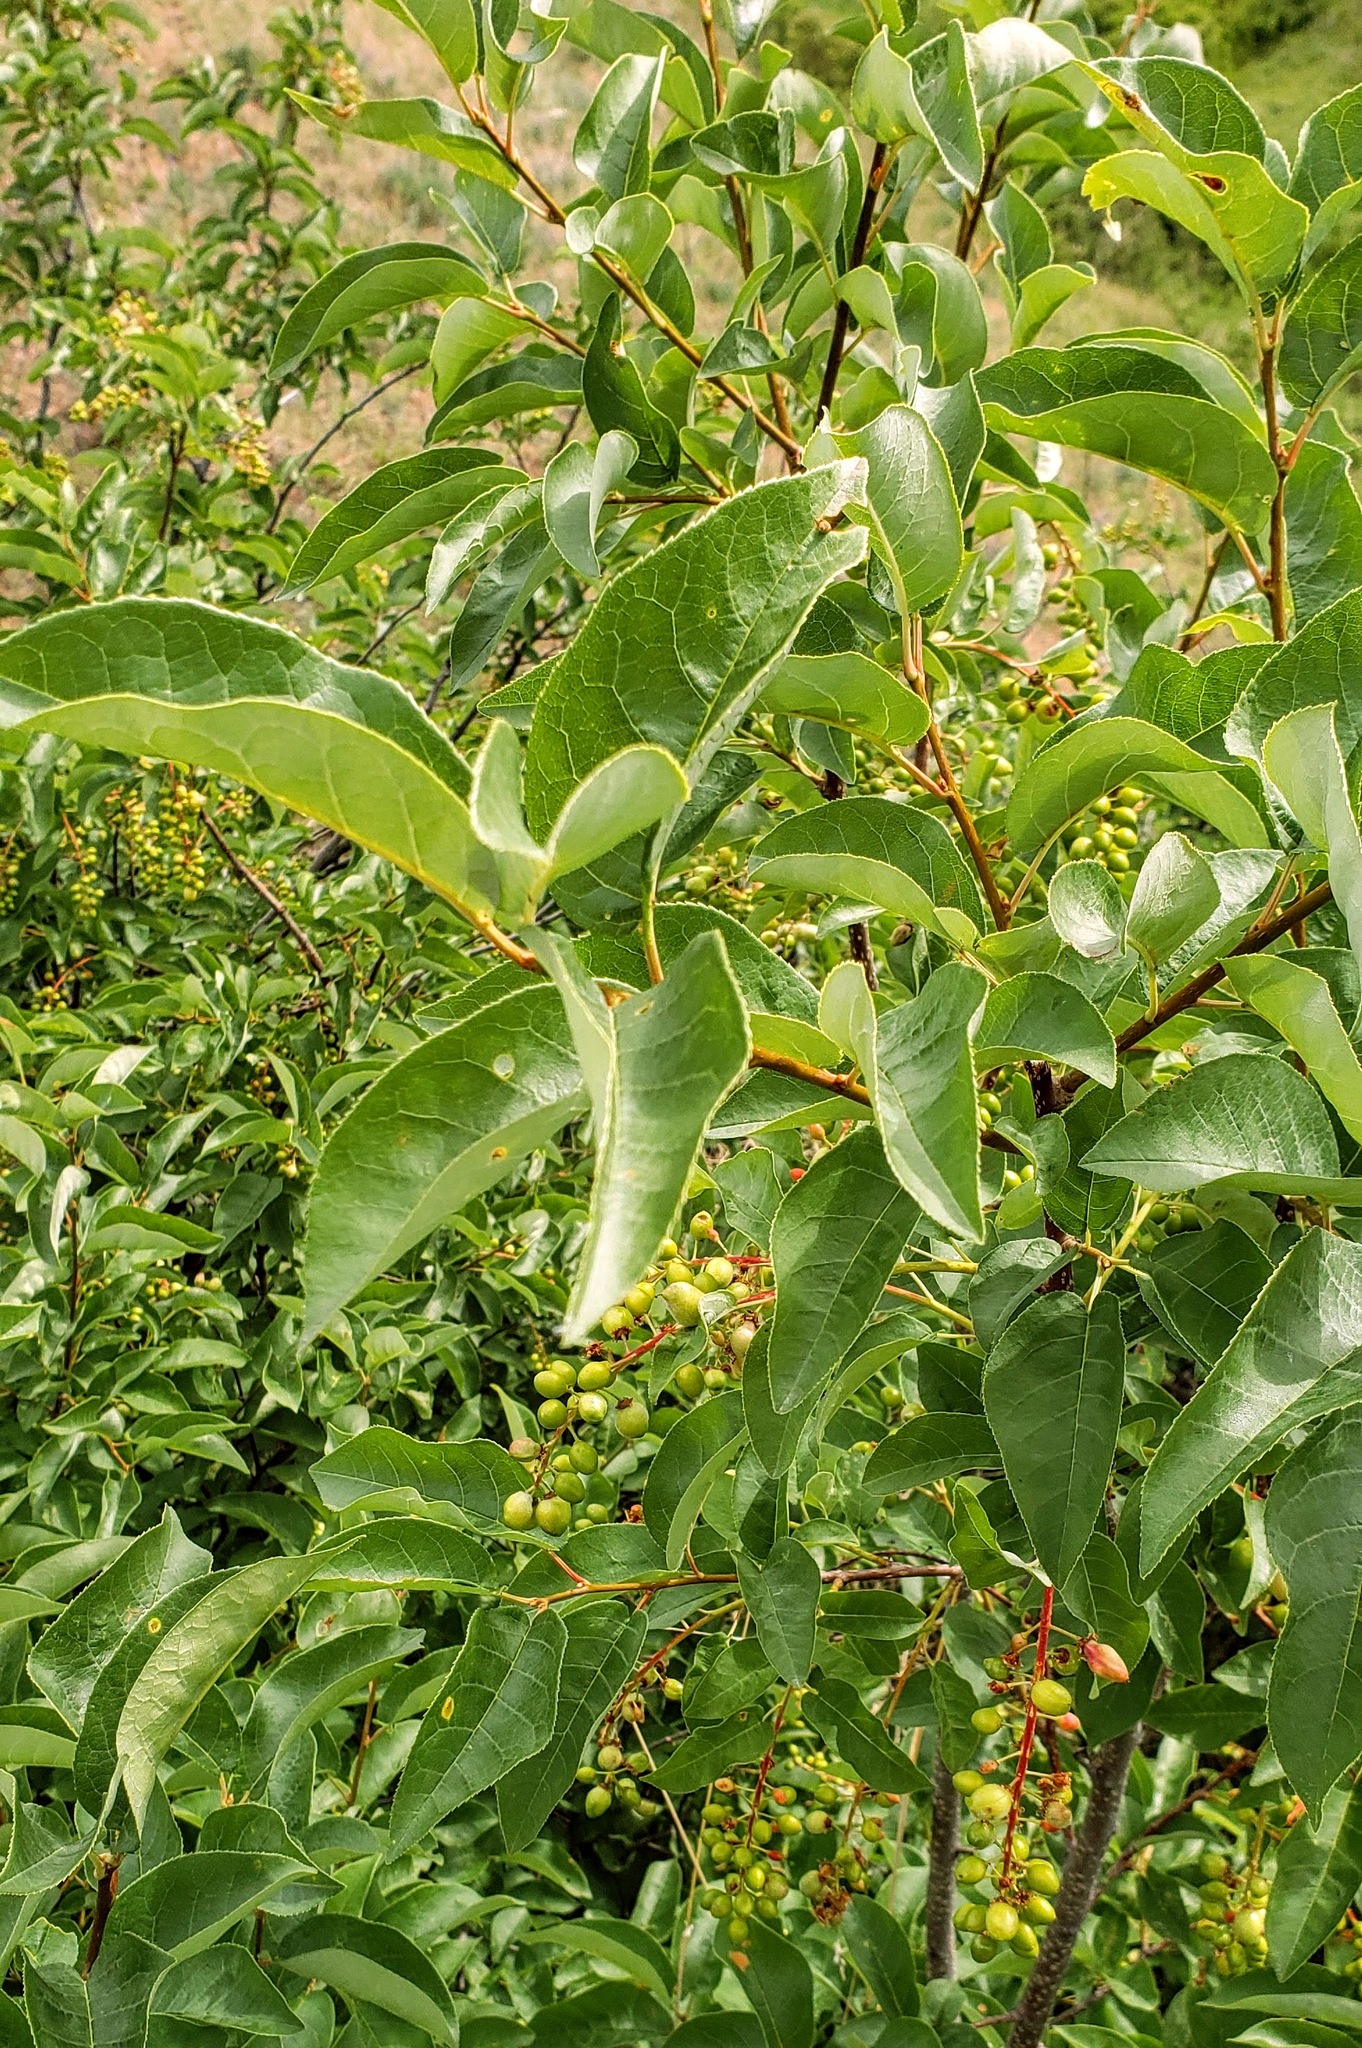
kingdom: Plantae
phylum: Tracheophyta
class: Magnoliopsida
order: Rosales
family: Rosaceae
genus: Prunus
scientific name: Prunus virginiana
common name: Chokecherry
